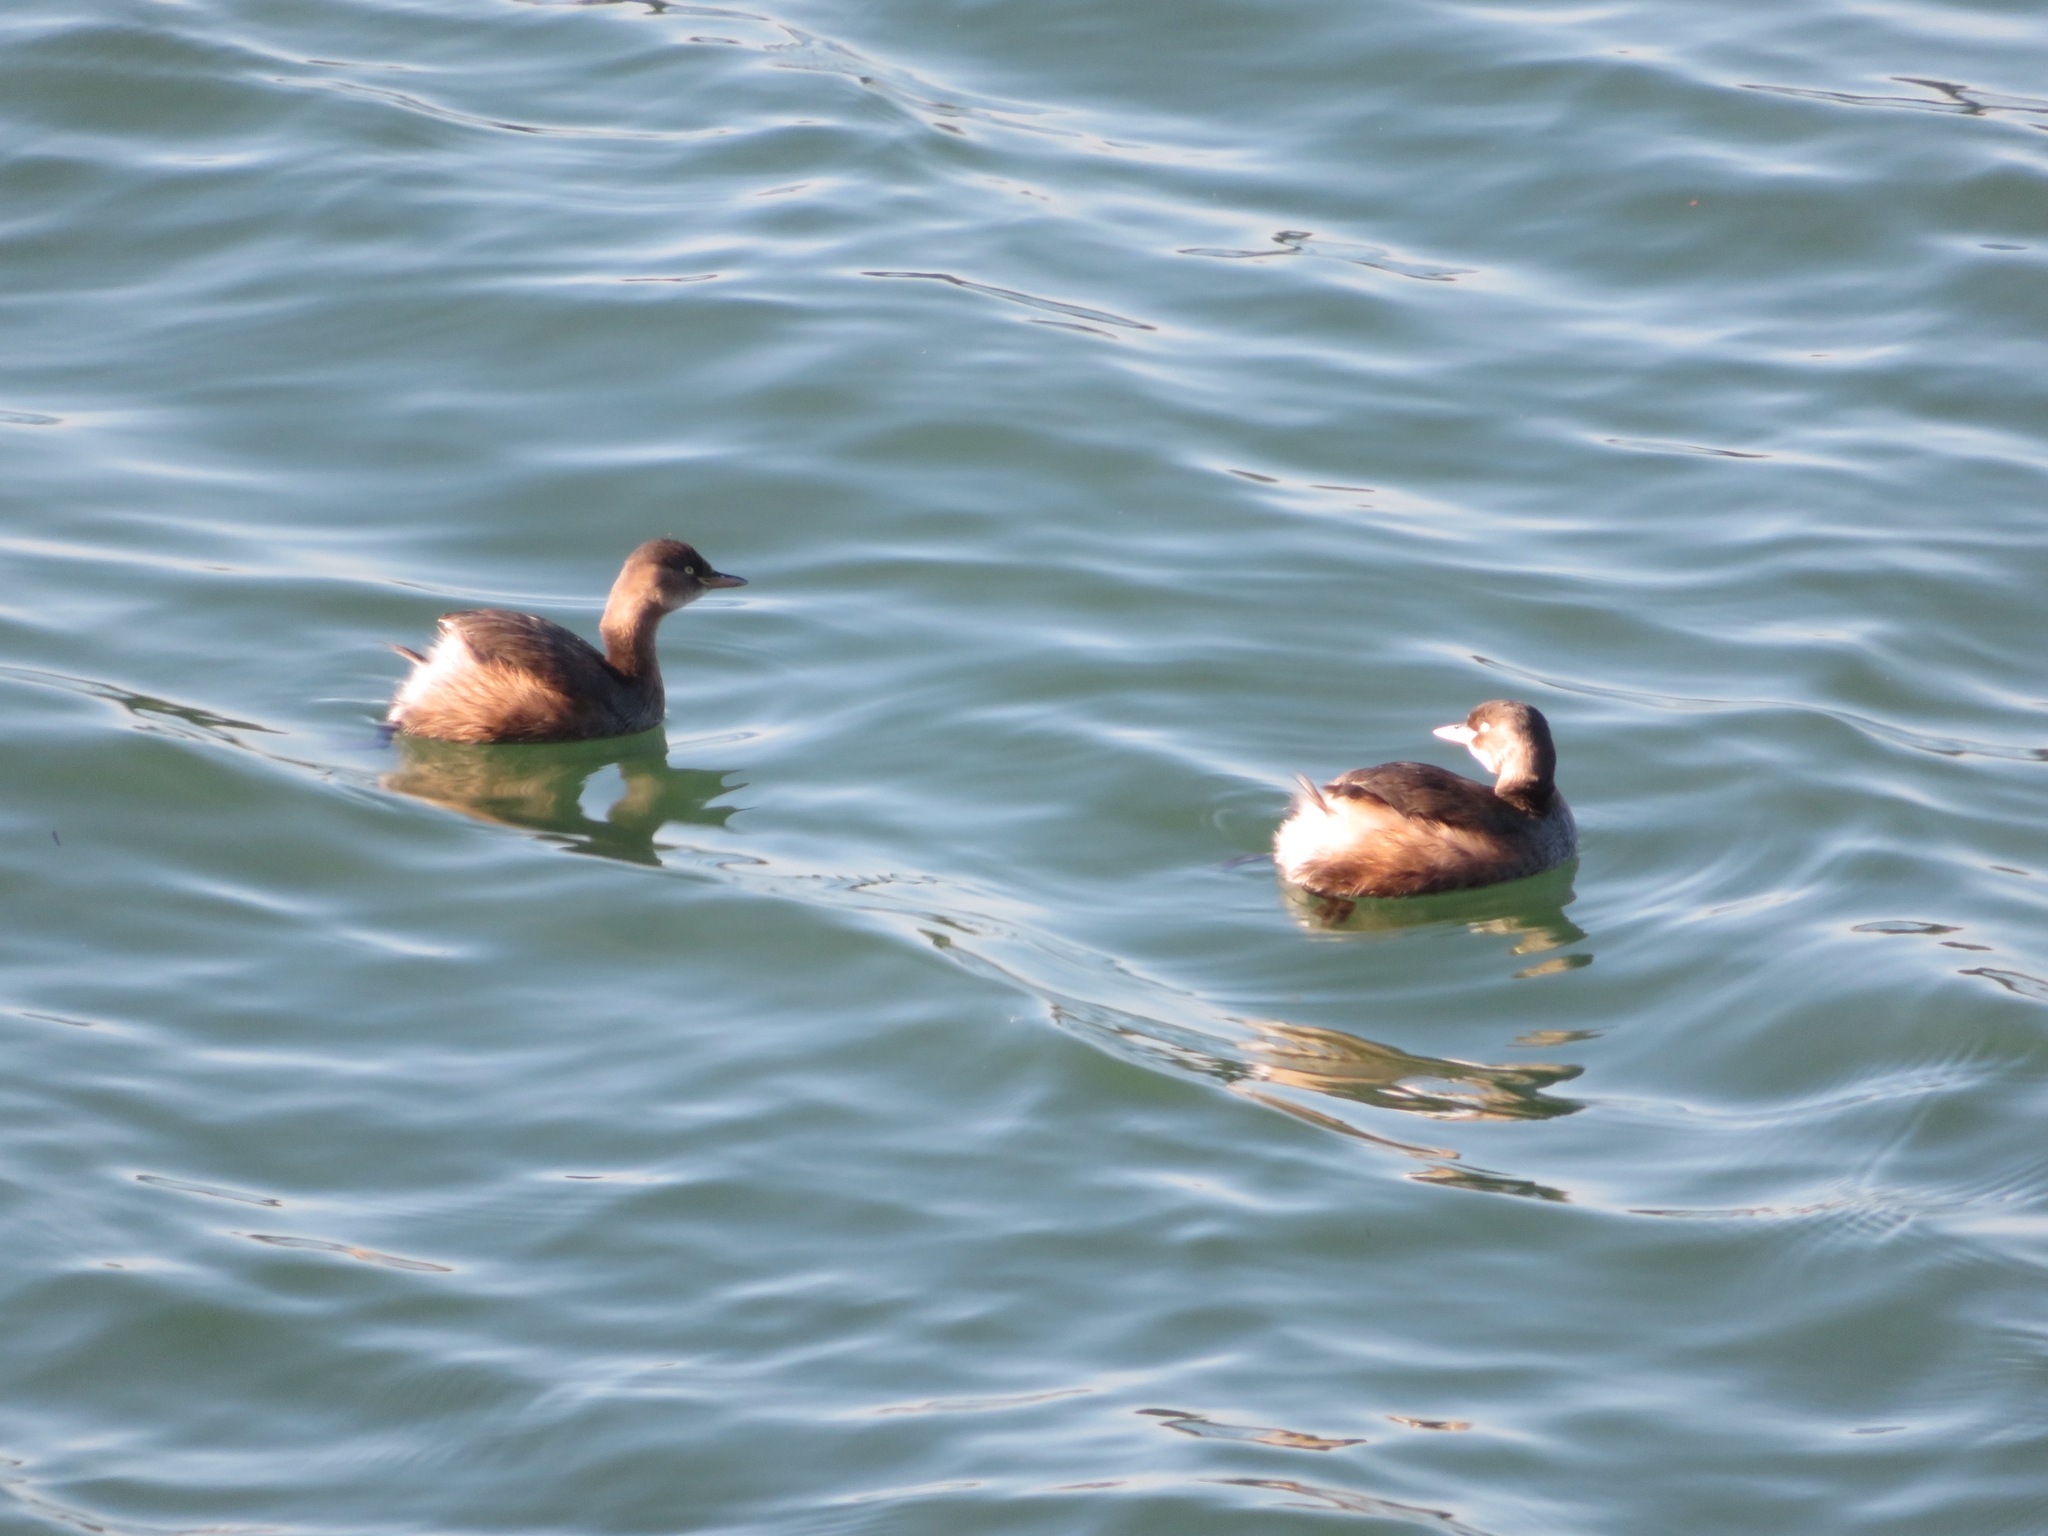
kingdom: Animalia
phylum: Chordata
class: Aves
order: Podicipediformes
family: Podicipedidae
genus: Tachybaptus
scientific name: Tachybaptus ruficollis
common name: Little grebe
